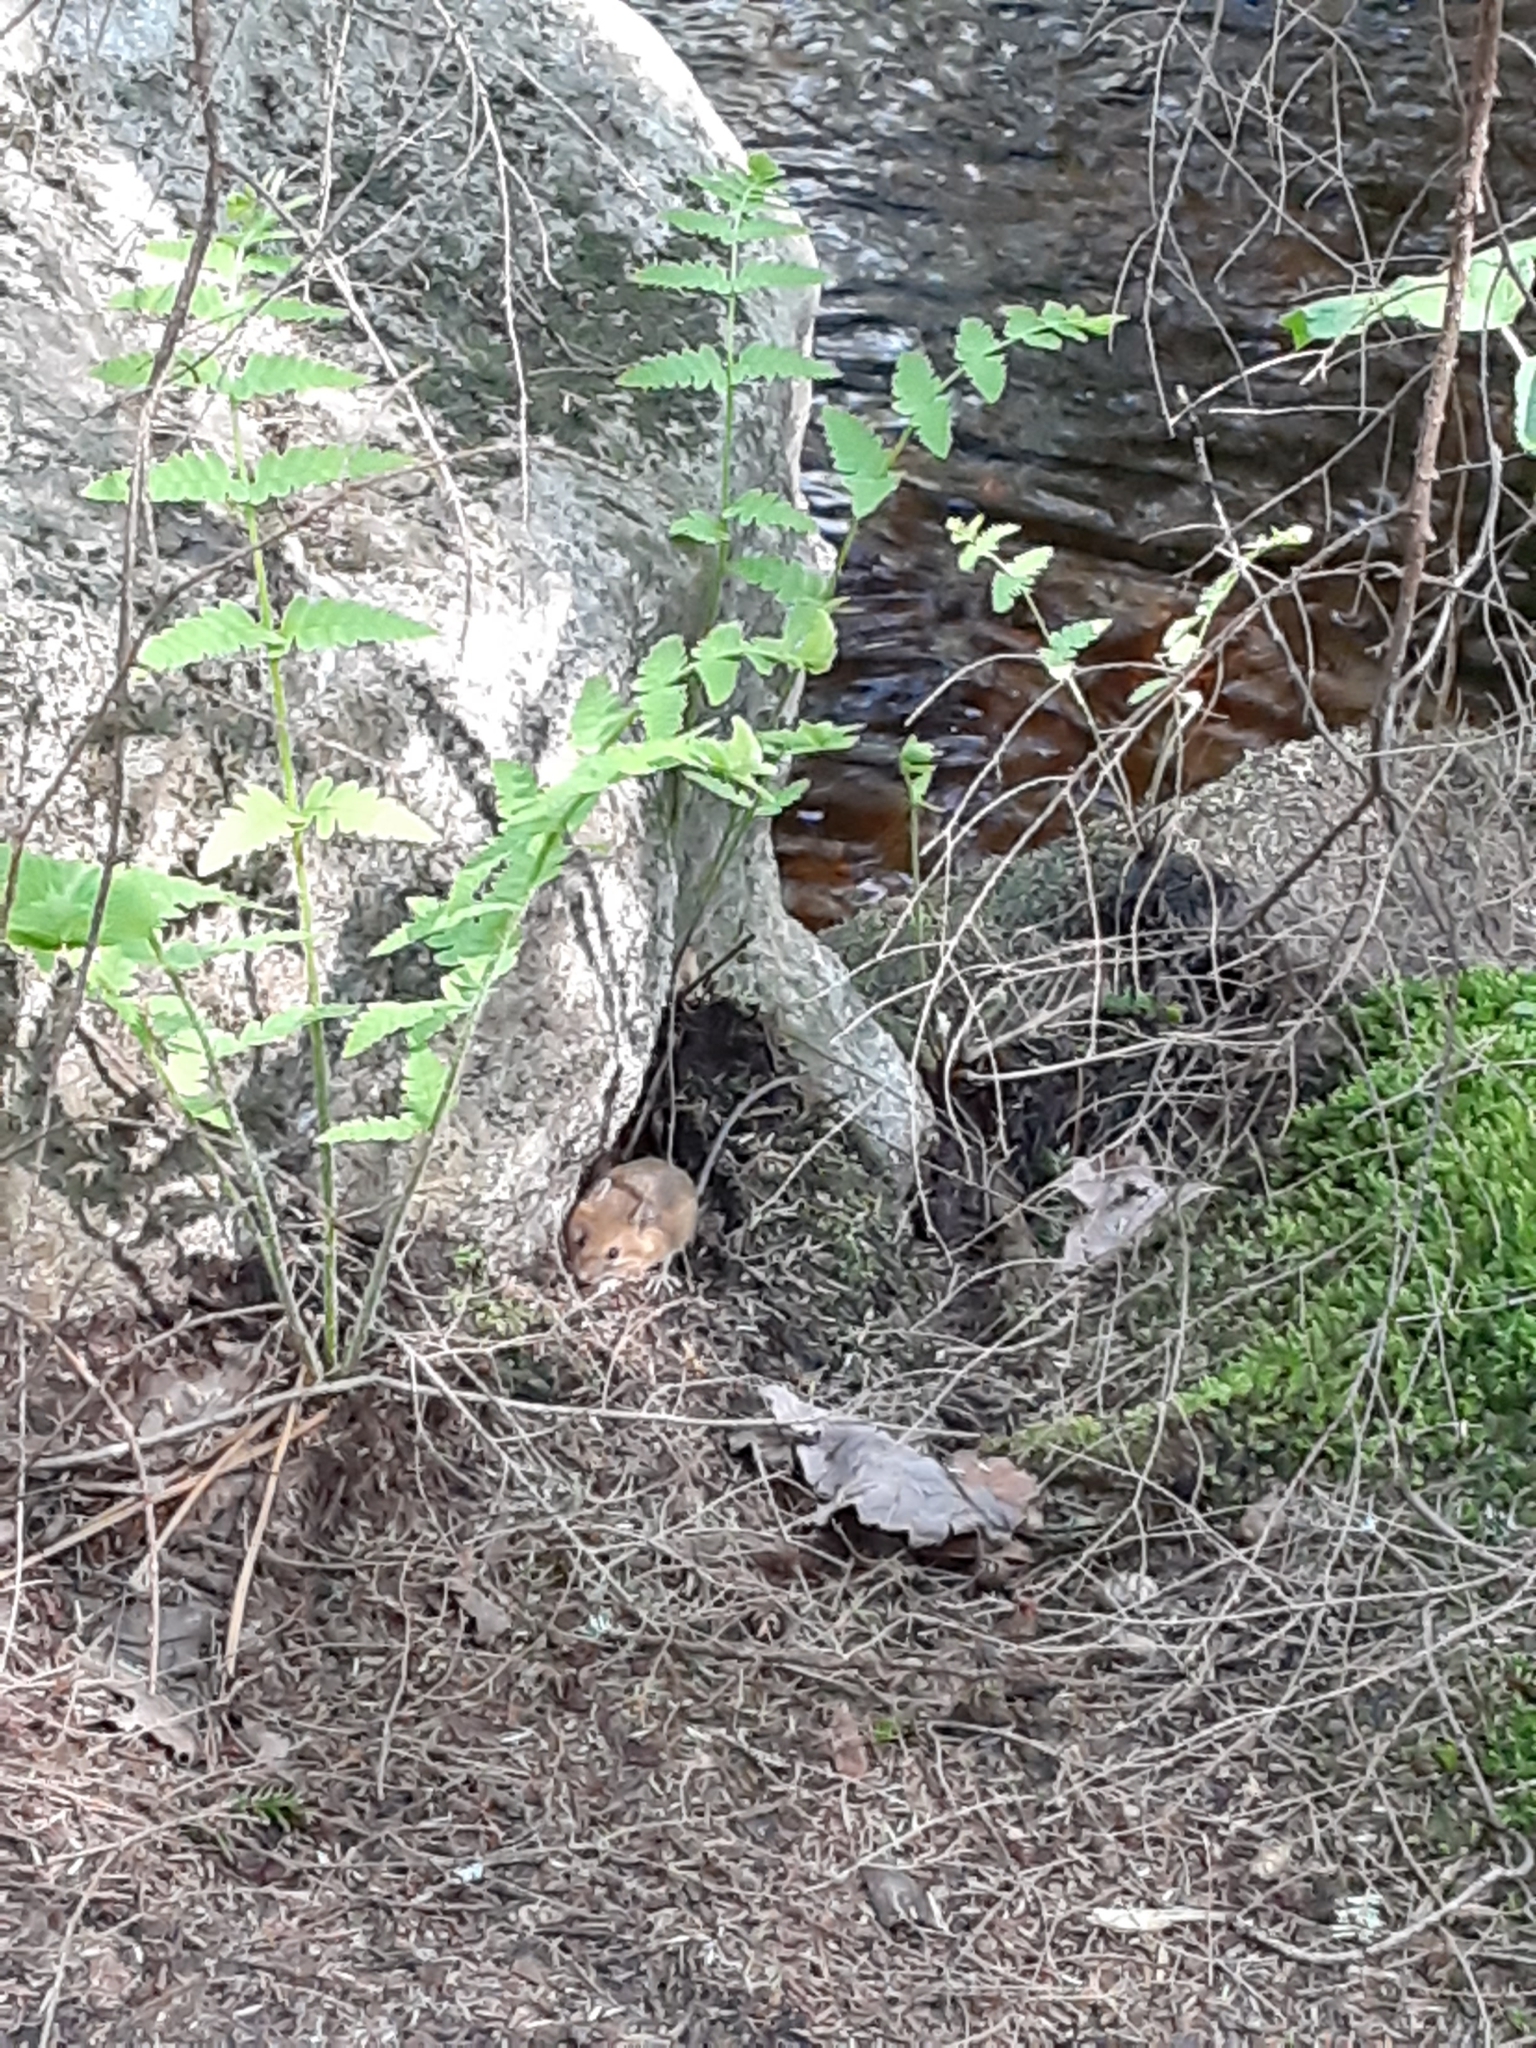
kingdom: Animalia
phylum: Chordata
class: Mammalia
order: Rodentia
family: Dipodidae
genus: Zapus
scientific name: Zapus hudsonius
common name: Meadow jumping mouse
